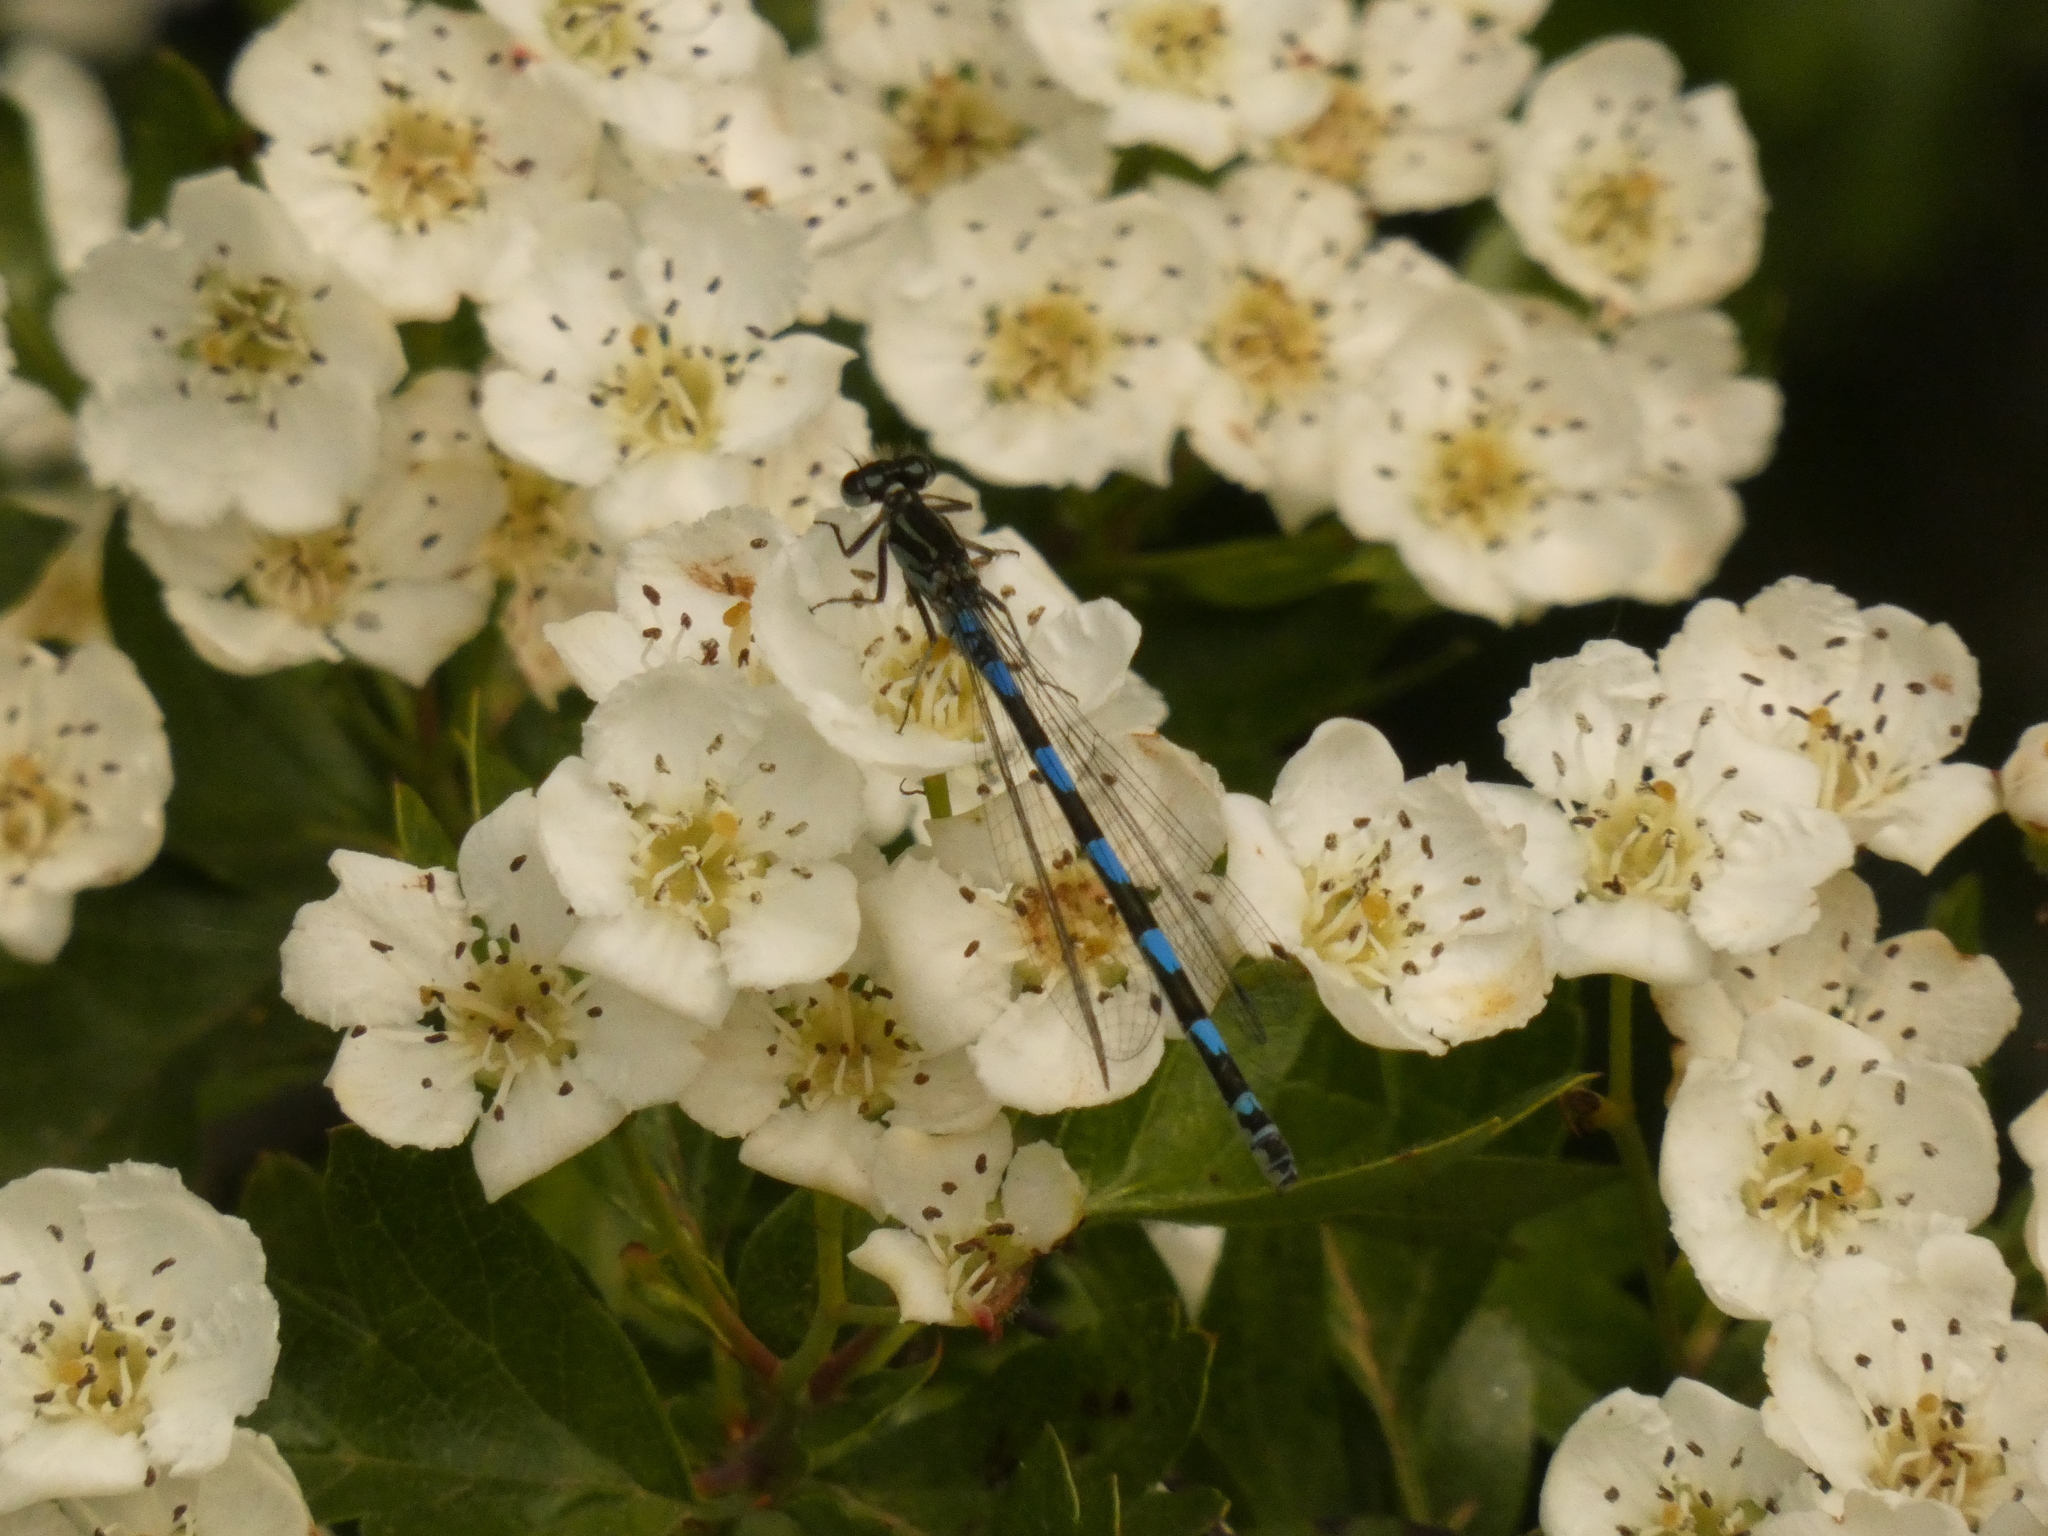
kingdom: Animalia
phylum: Arthropoda
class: Insecta
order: Odonata
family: Coenagrionidae
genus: Coenagrion
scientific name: Coenagrion pulchellum
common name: Variable bluet
